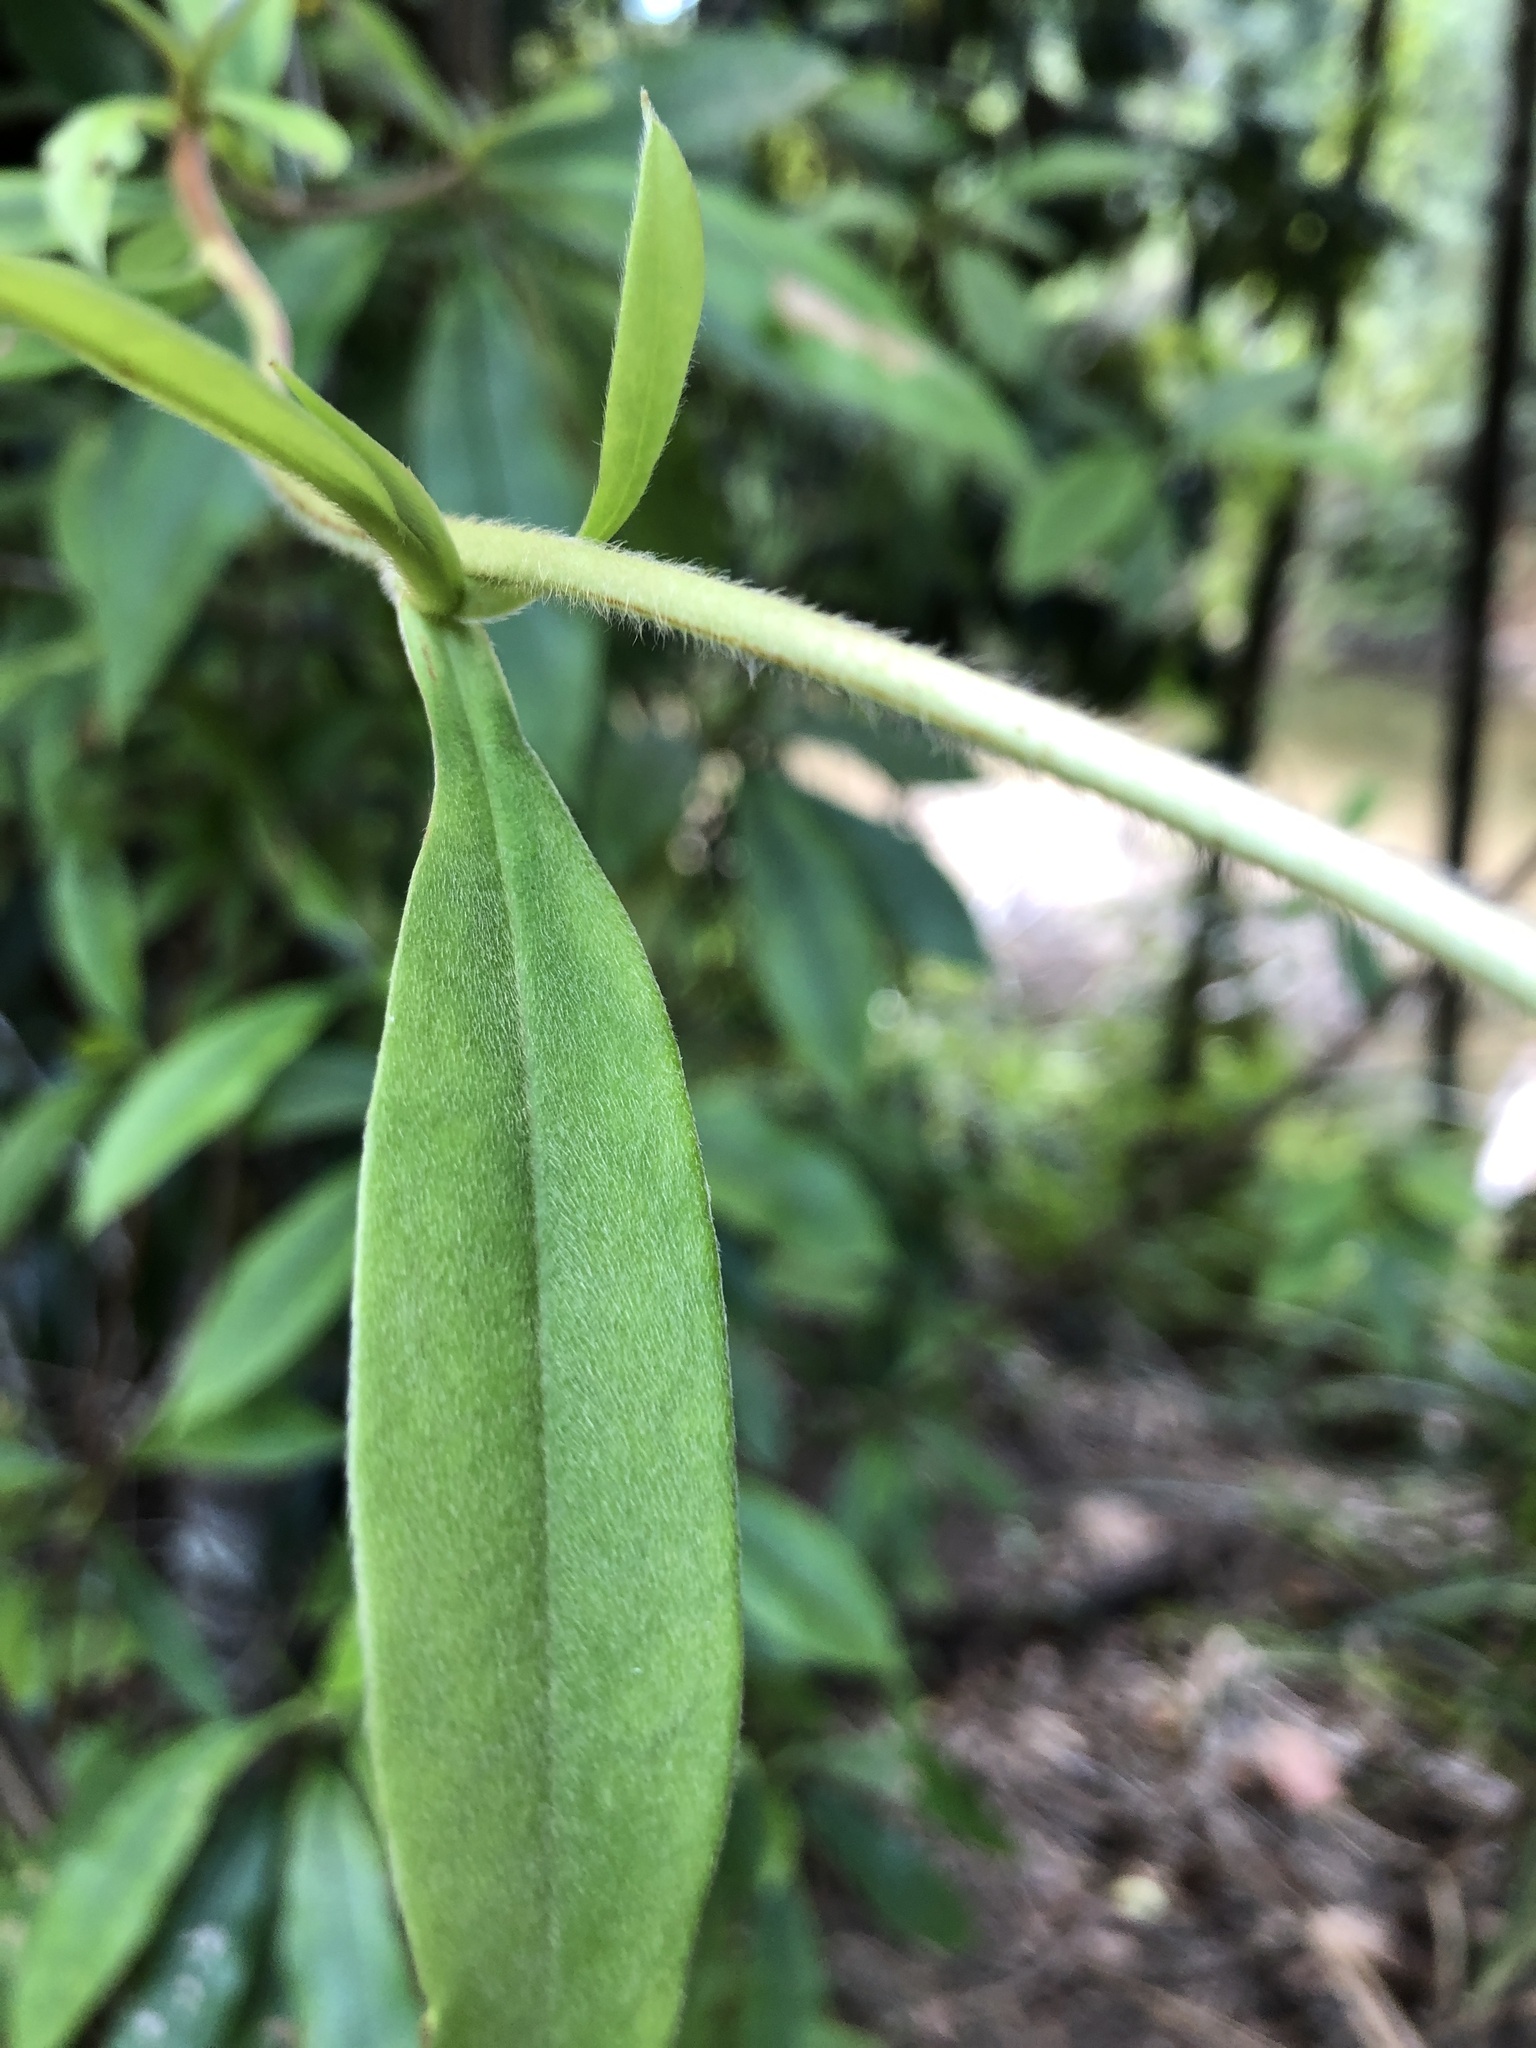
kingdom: Plantae
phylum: Tracheophyta
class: Magnoliopsida
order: Dilleniales
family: Dilleniaceae
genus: Hibbertia
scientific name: Hibbertia scandens
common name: Climbing guinea-flower
